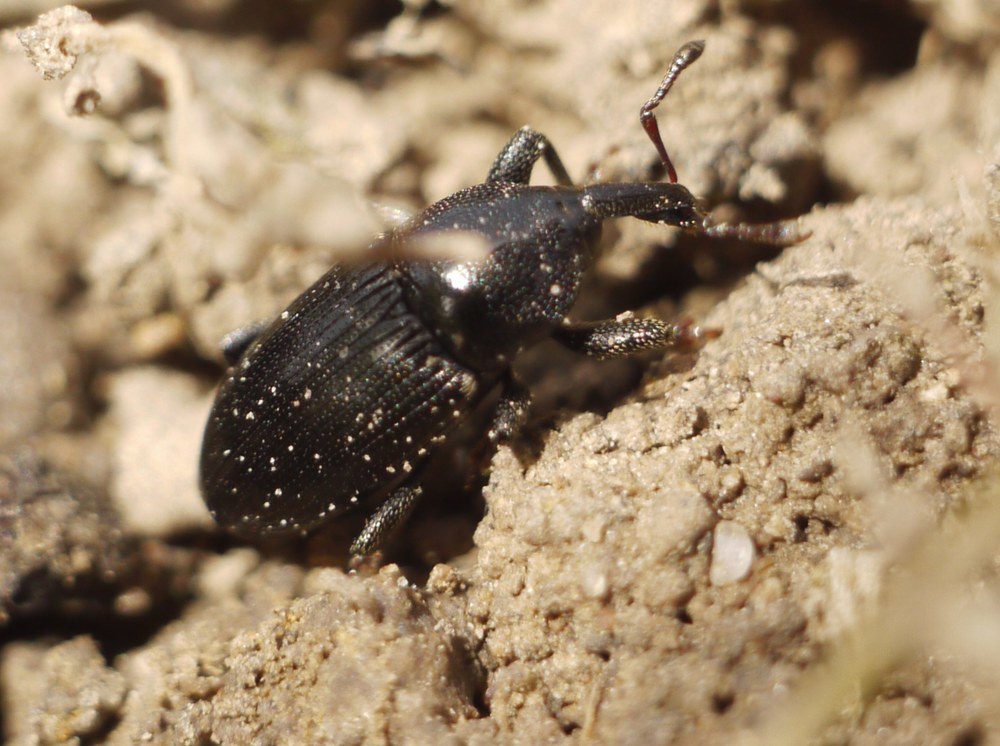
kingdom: Animalia
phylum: Arthropoda
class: Insecta
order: Coleoptera
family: Curculionidae
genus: Melanobaris
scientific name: Melanobaris semistriata
